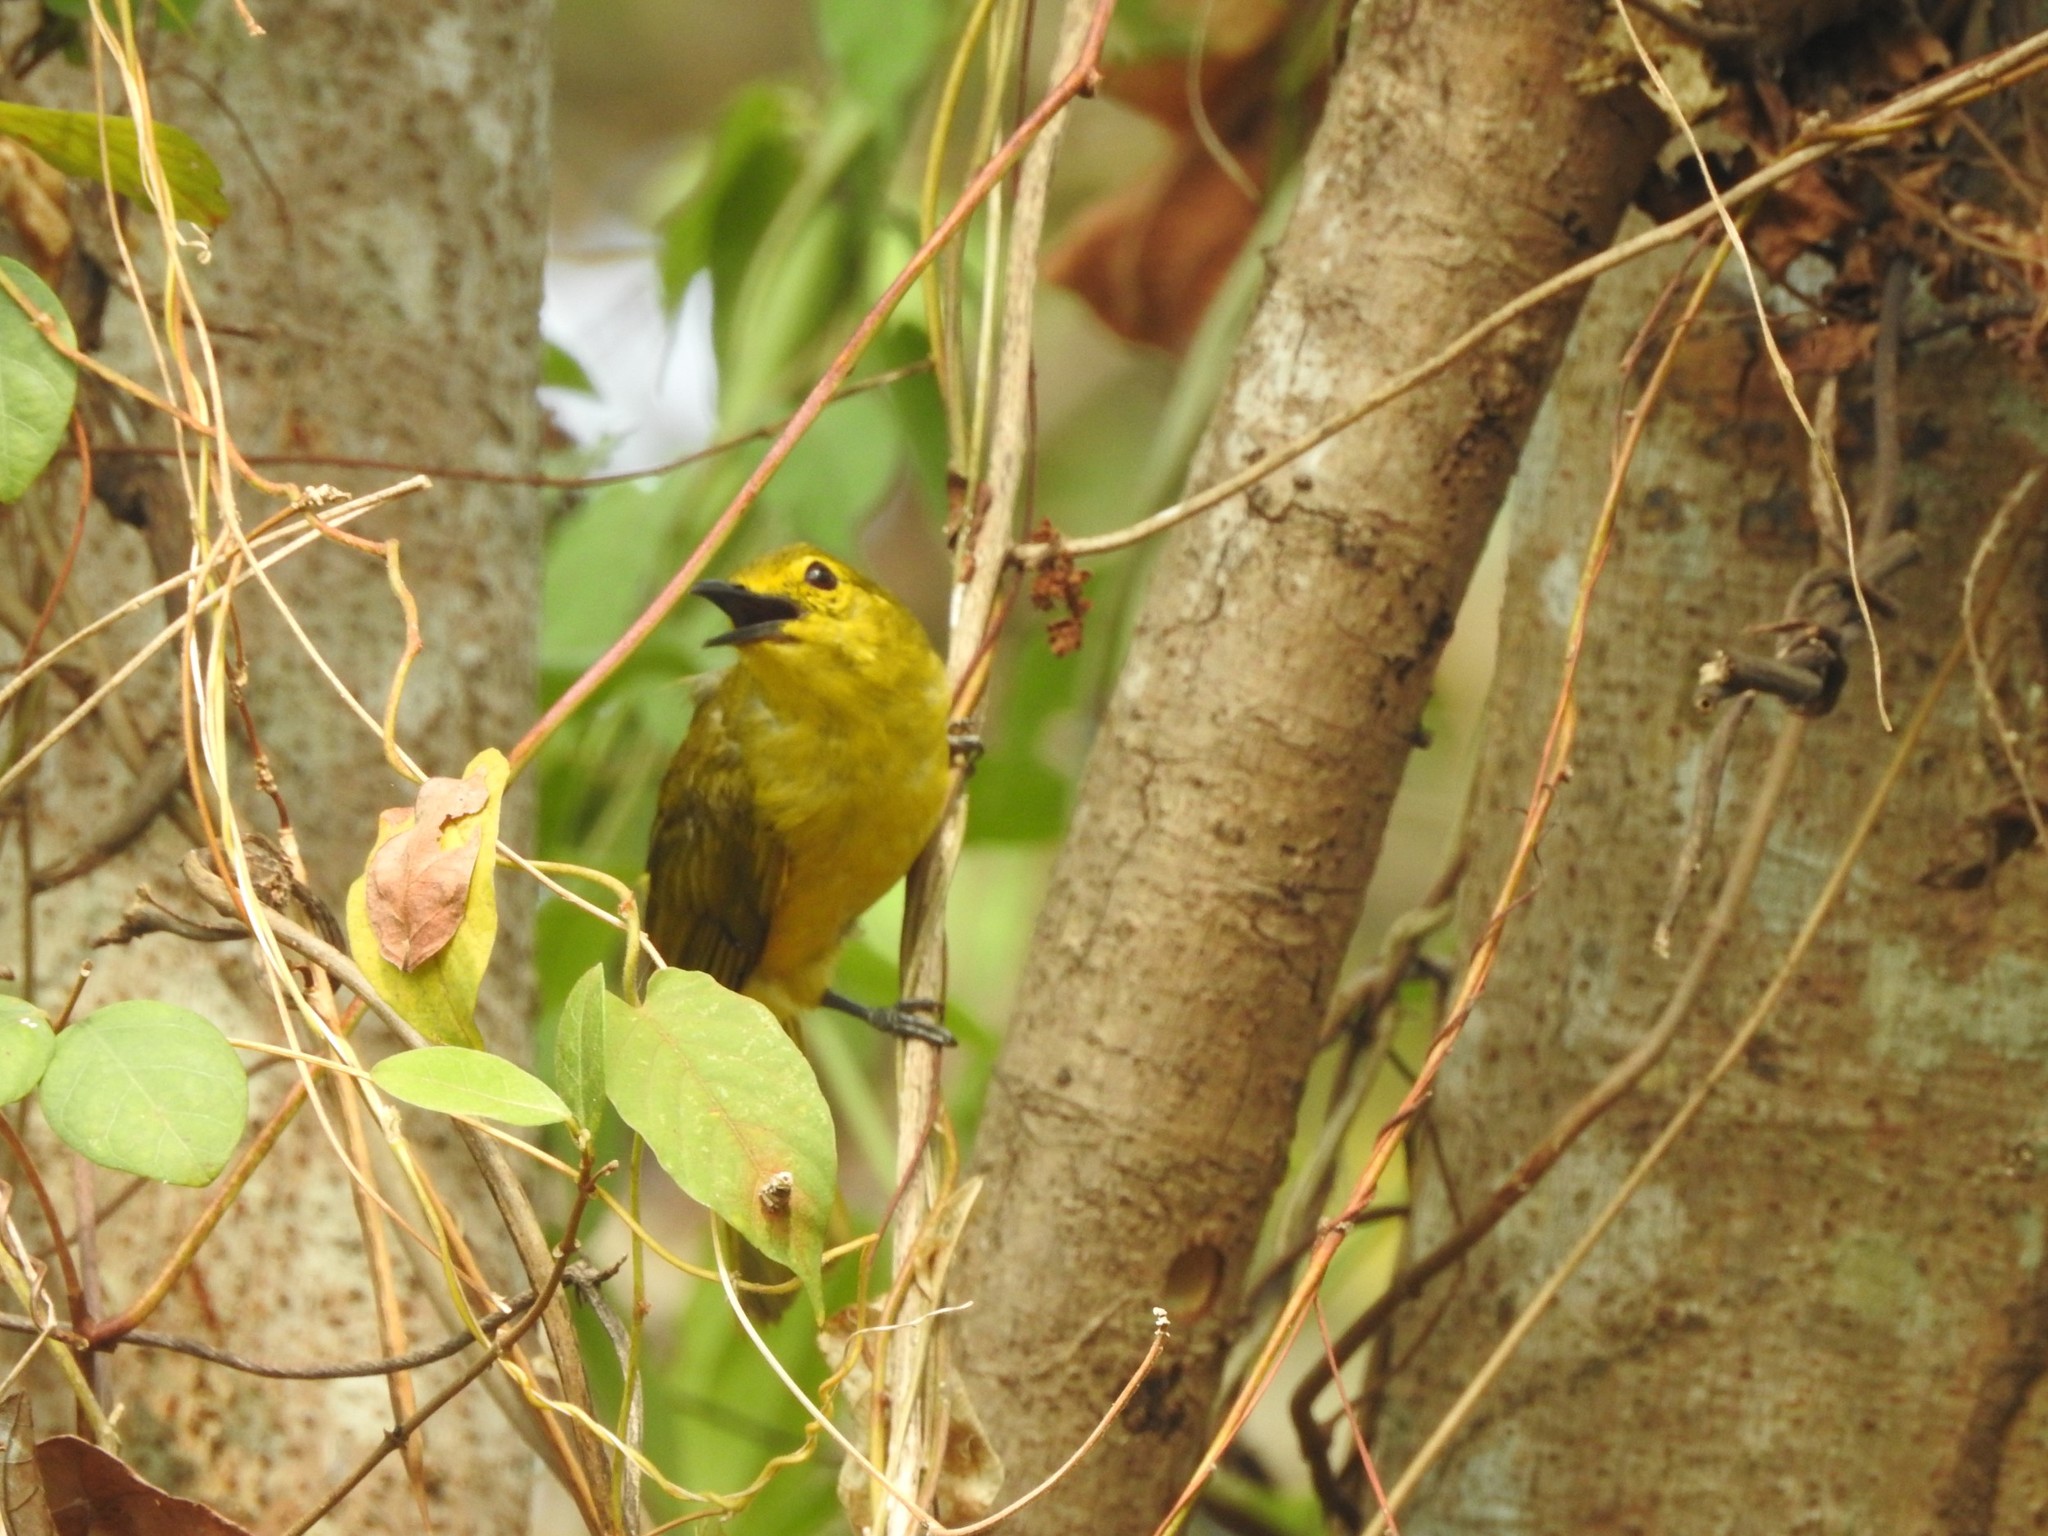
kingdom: Animalia
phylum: Chordata
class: Aves
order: Passeriformes
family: Pycnonotidae
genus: Acritillas
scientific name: Acritillas indica
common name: Yellow-browed bulbul
